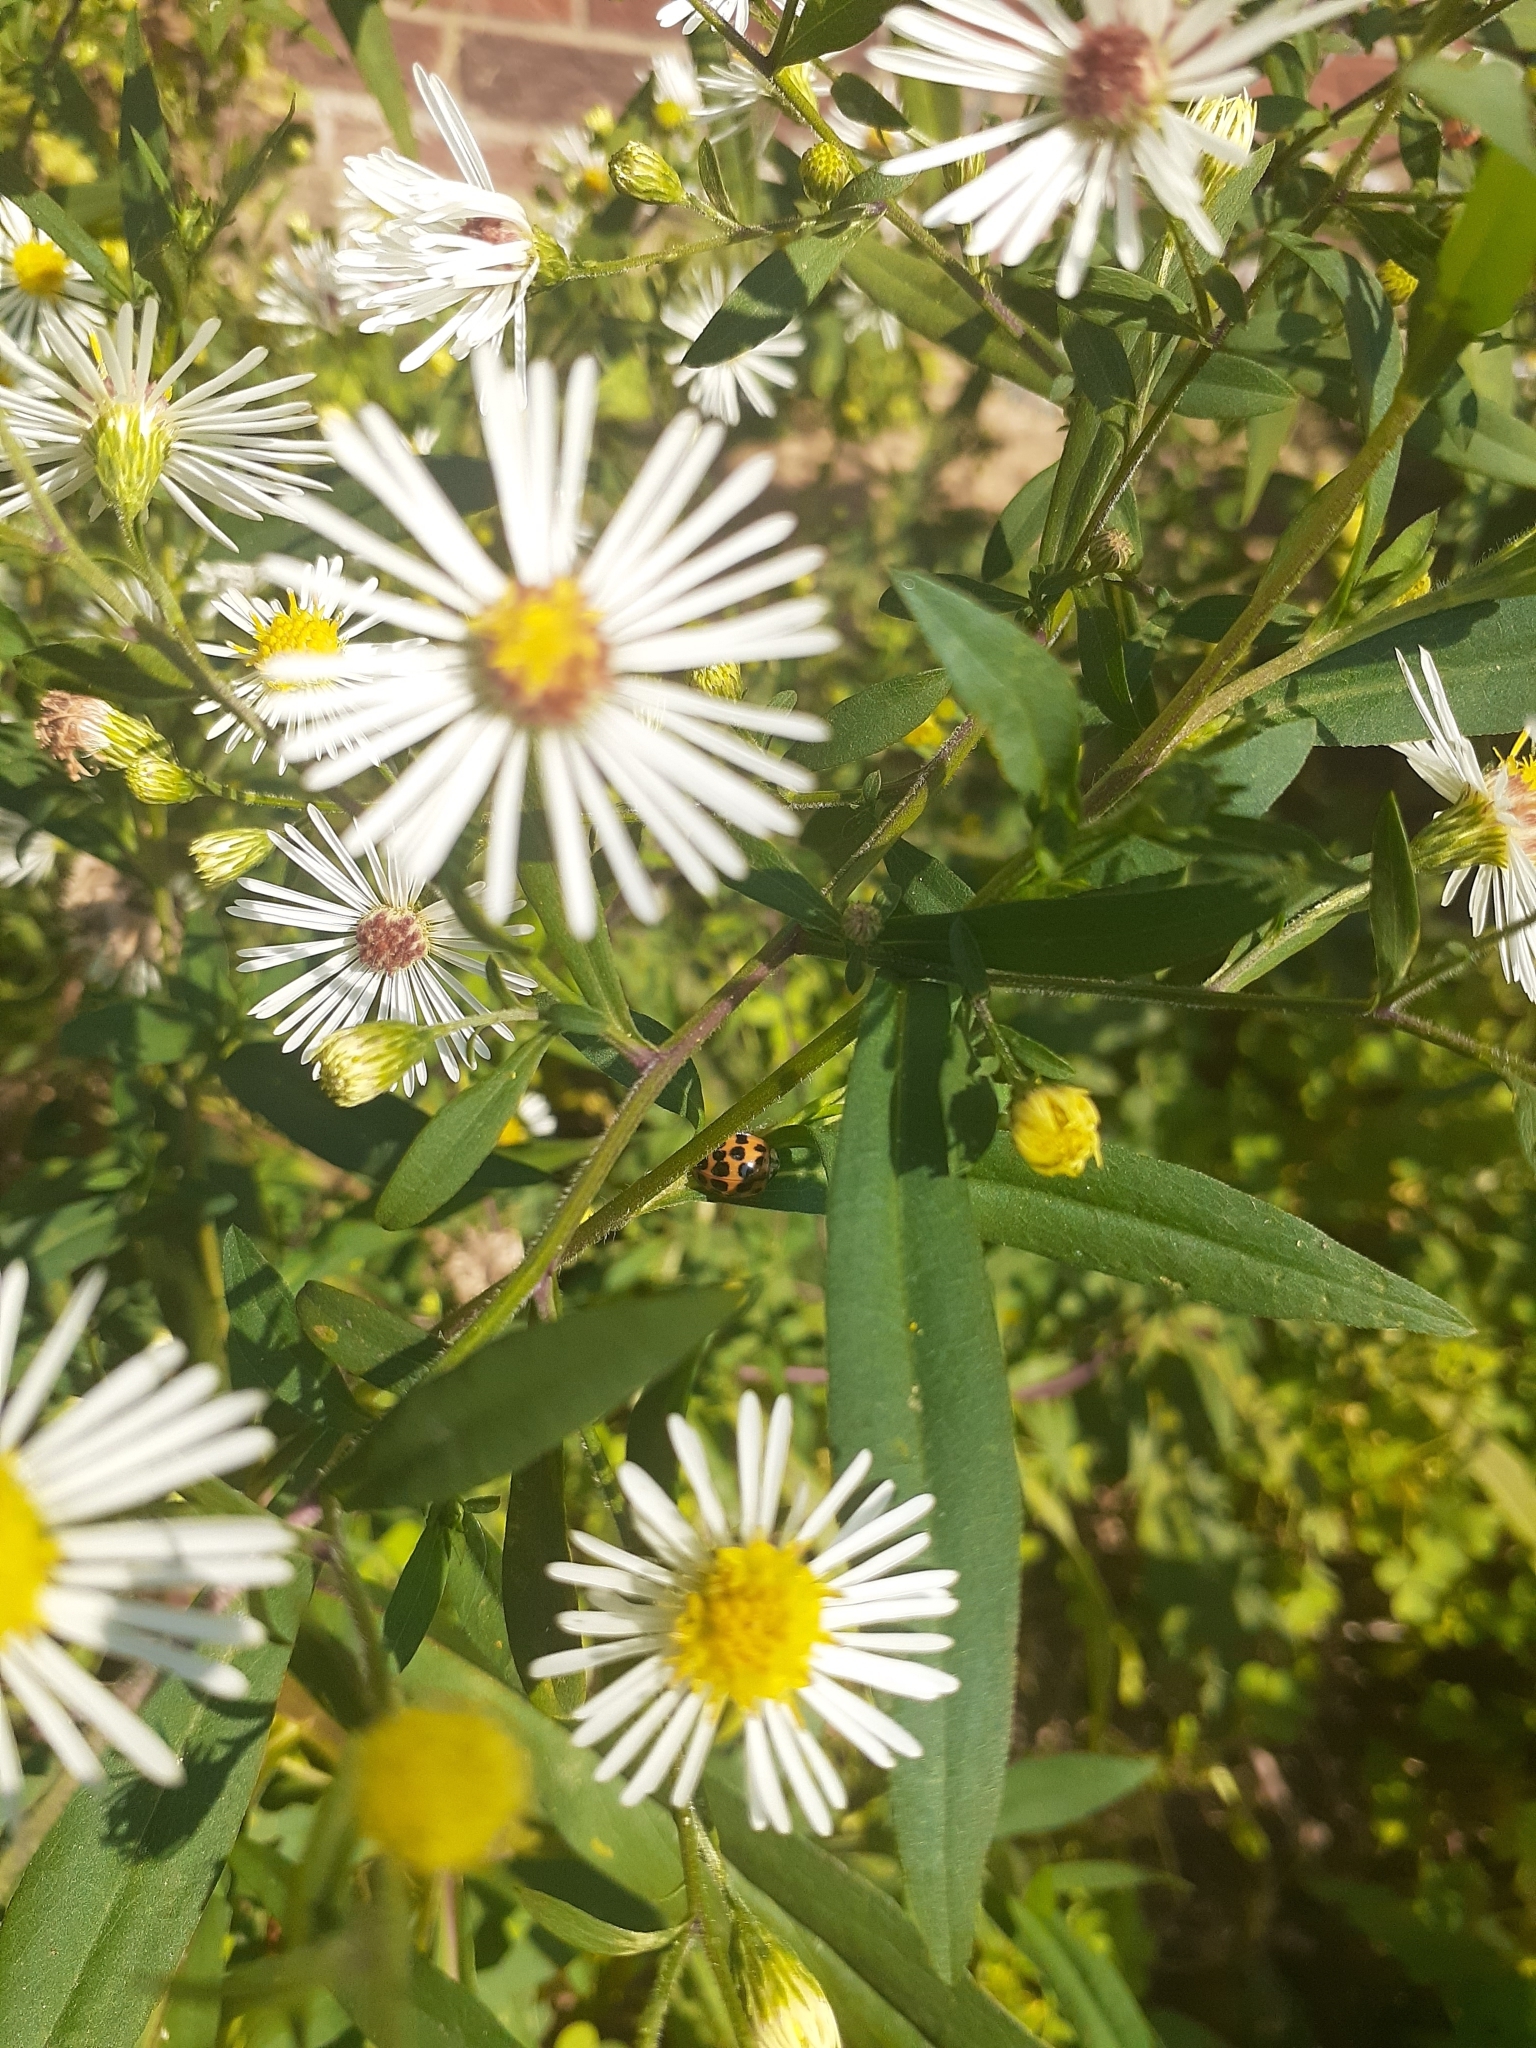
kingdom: Animalia
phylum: Arthropoda
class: Insecta
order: Coleoptera
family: Coccinellidae
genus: Harmonia
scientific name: Harmonia axyridis
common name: Harlequin ladybird
